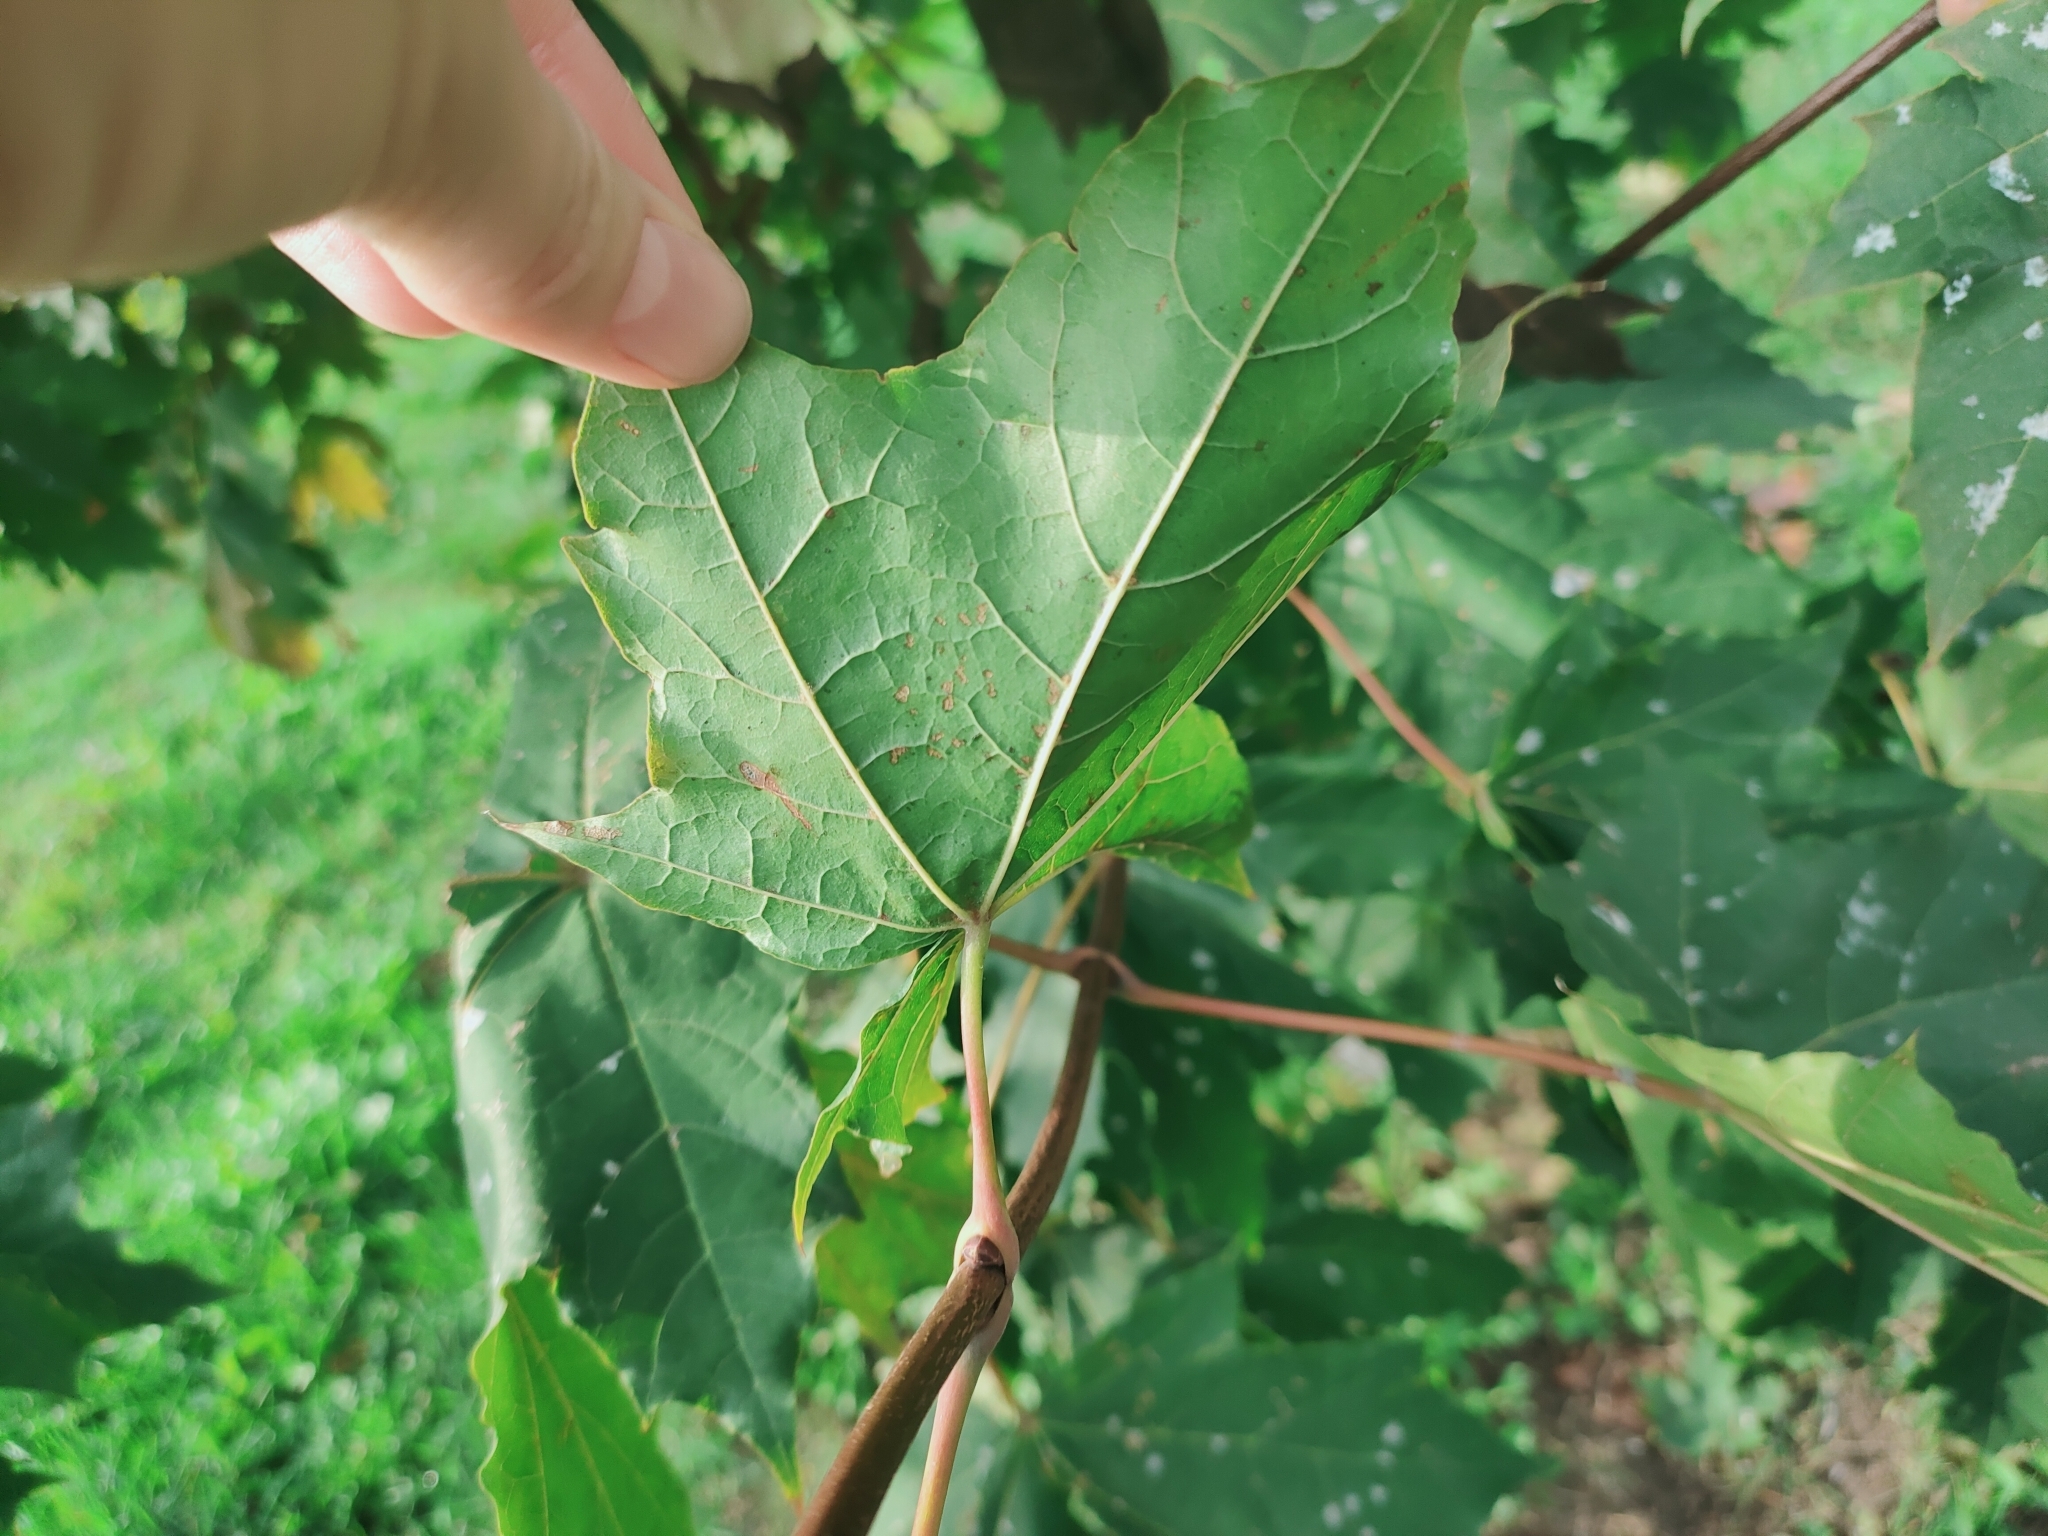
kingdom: Fungi
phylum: Ascomycota
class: Leotiomycetes
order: Helotiales
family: Erysiphaceae
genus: Sawadaea
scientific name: Sawadaea tulasnei
